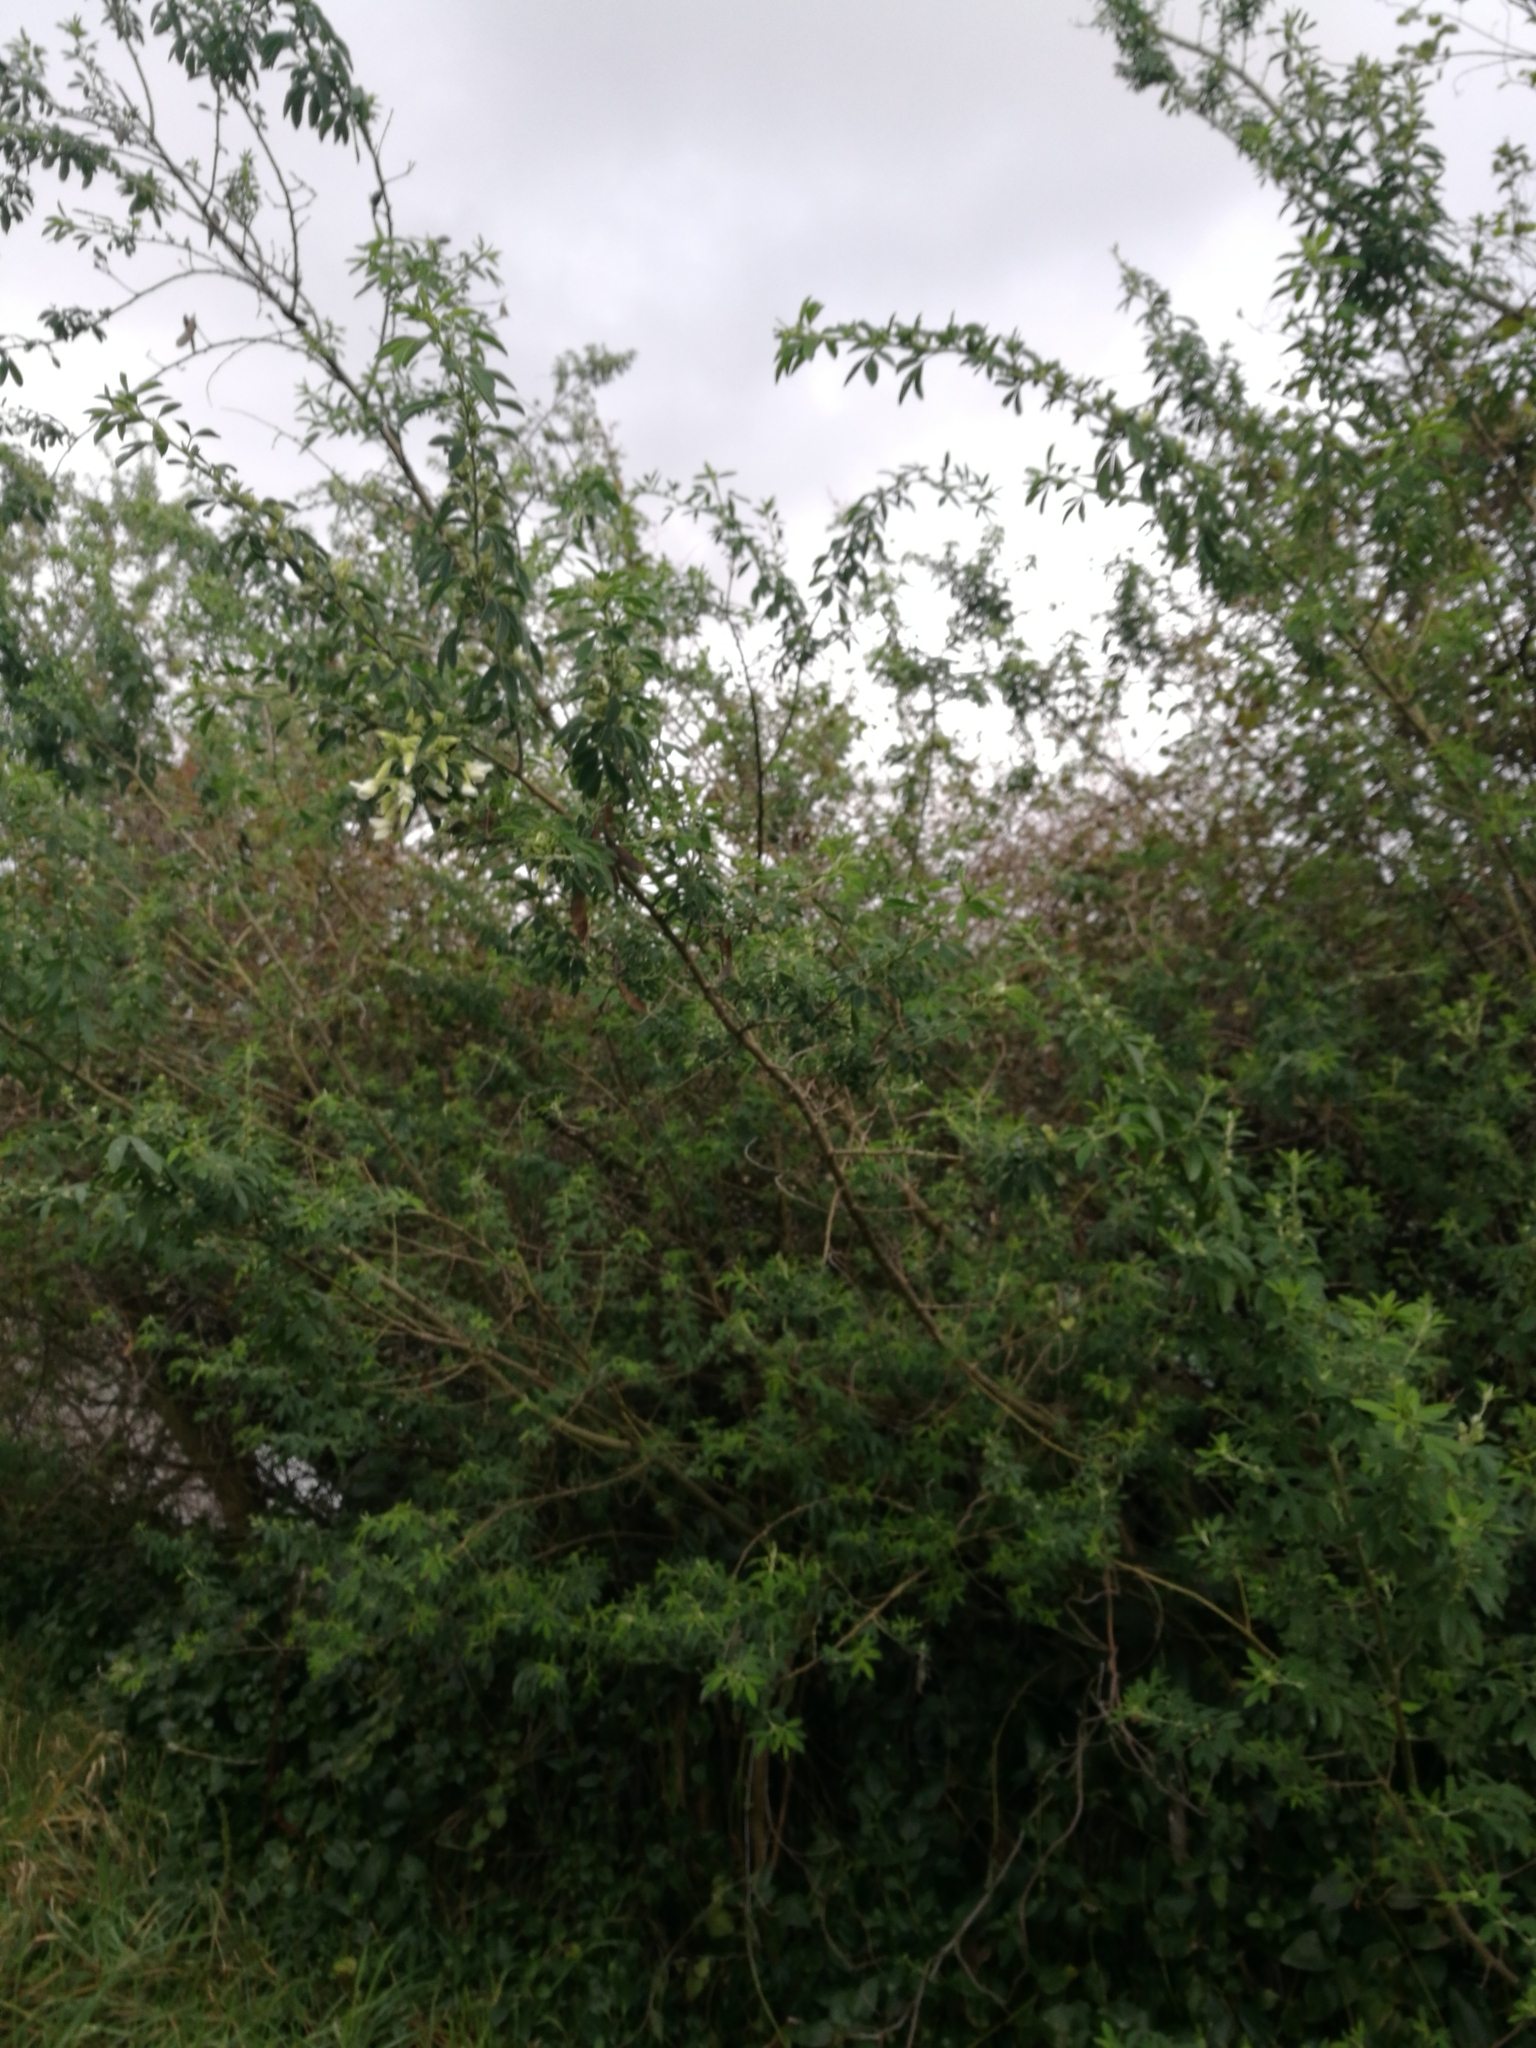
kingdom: Plantae
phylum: Tracheophyta
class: Magnoliopsida
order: Fabales
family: Fabaceae
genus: Chamaecytisus
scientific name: Chamaecytisus prolifer
